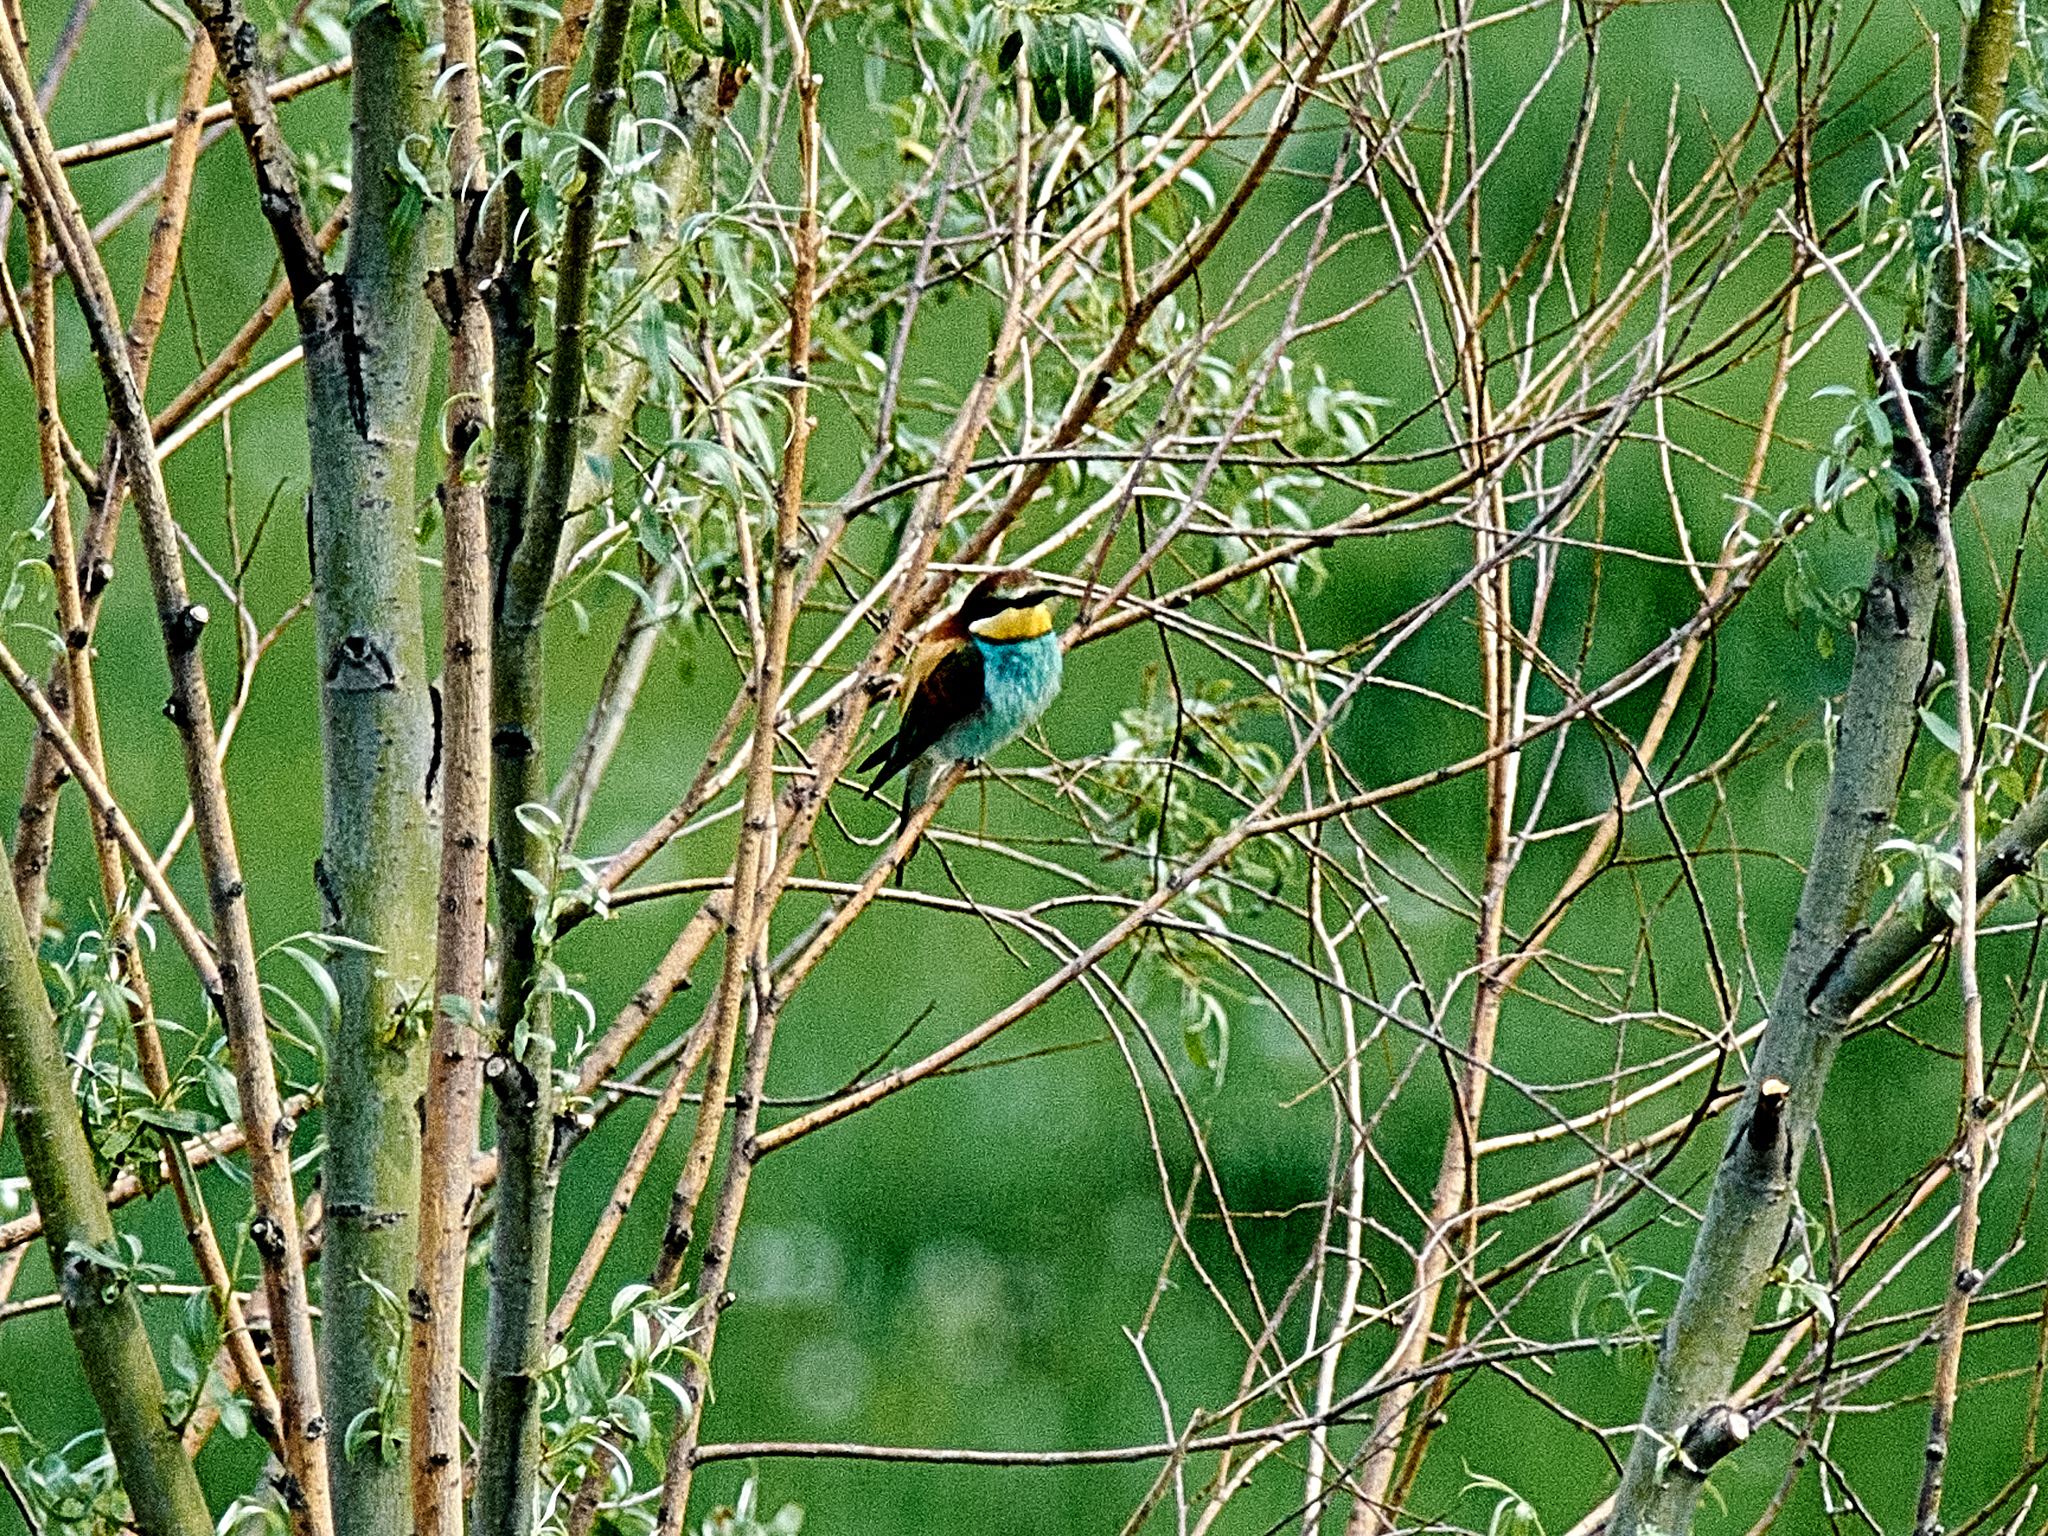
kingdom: Animalia
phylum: Chordata
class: Aves
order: Coraciiformes
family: Meropidae
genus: Merops
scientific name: Merops apiaster
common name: European bee-eater
